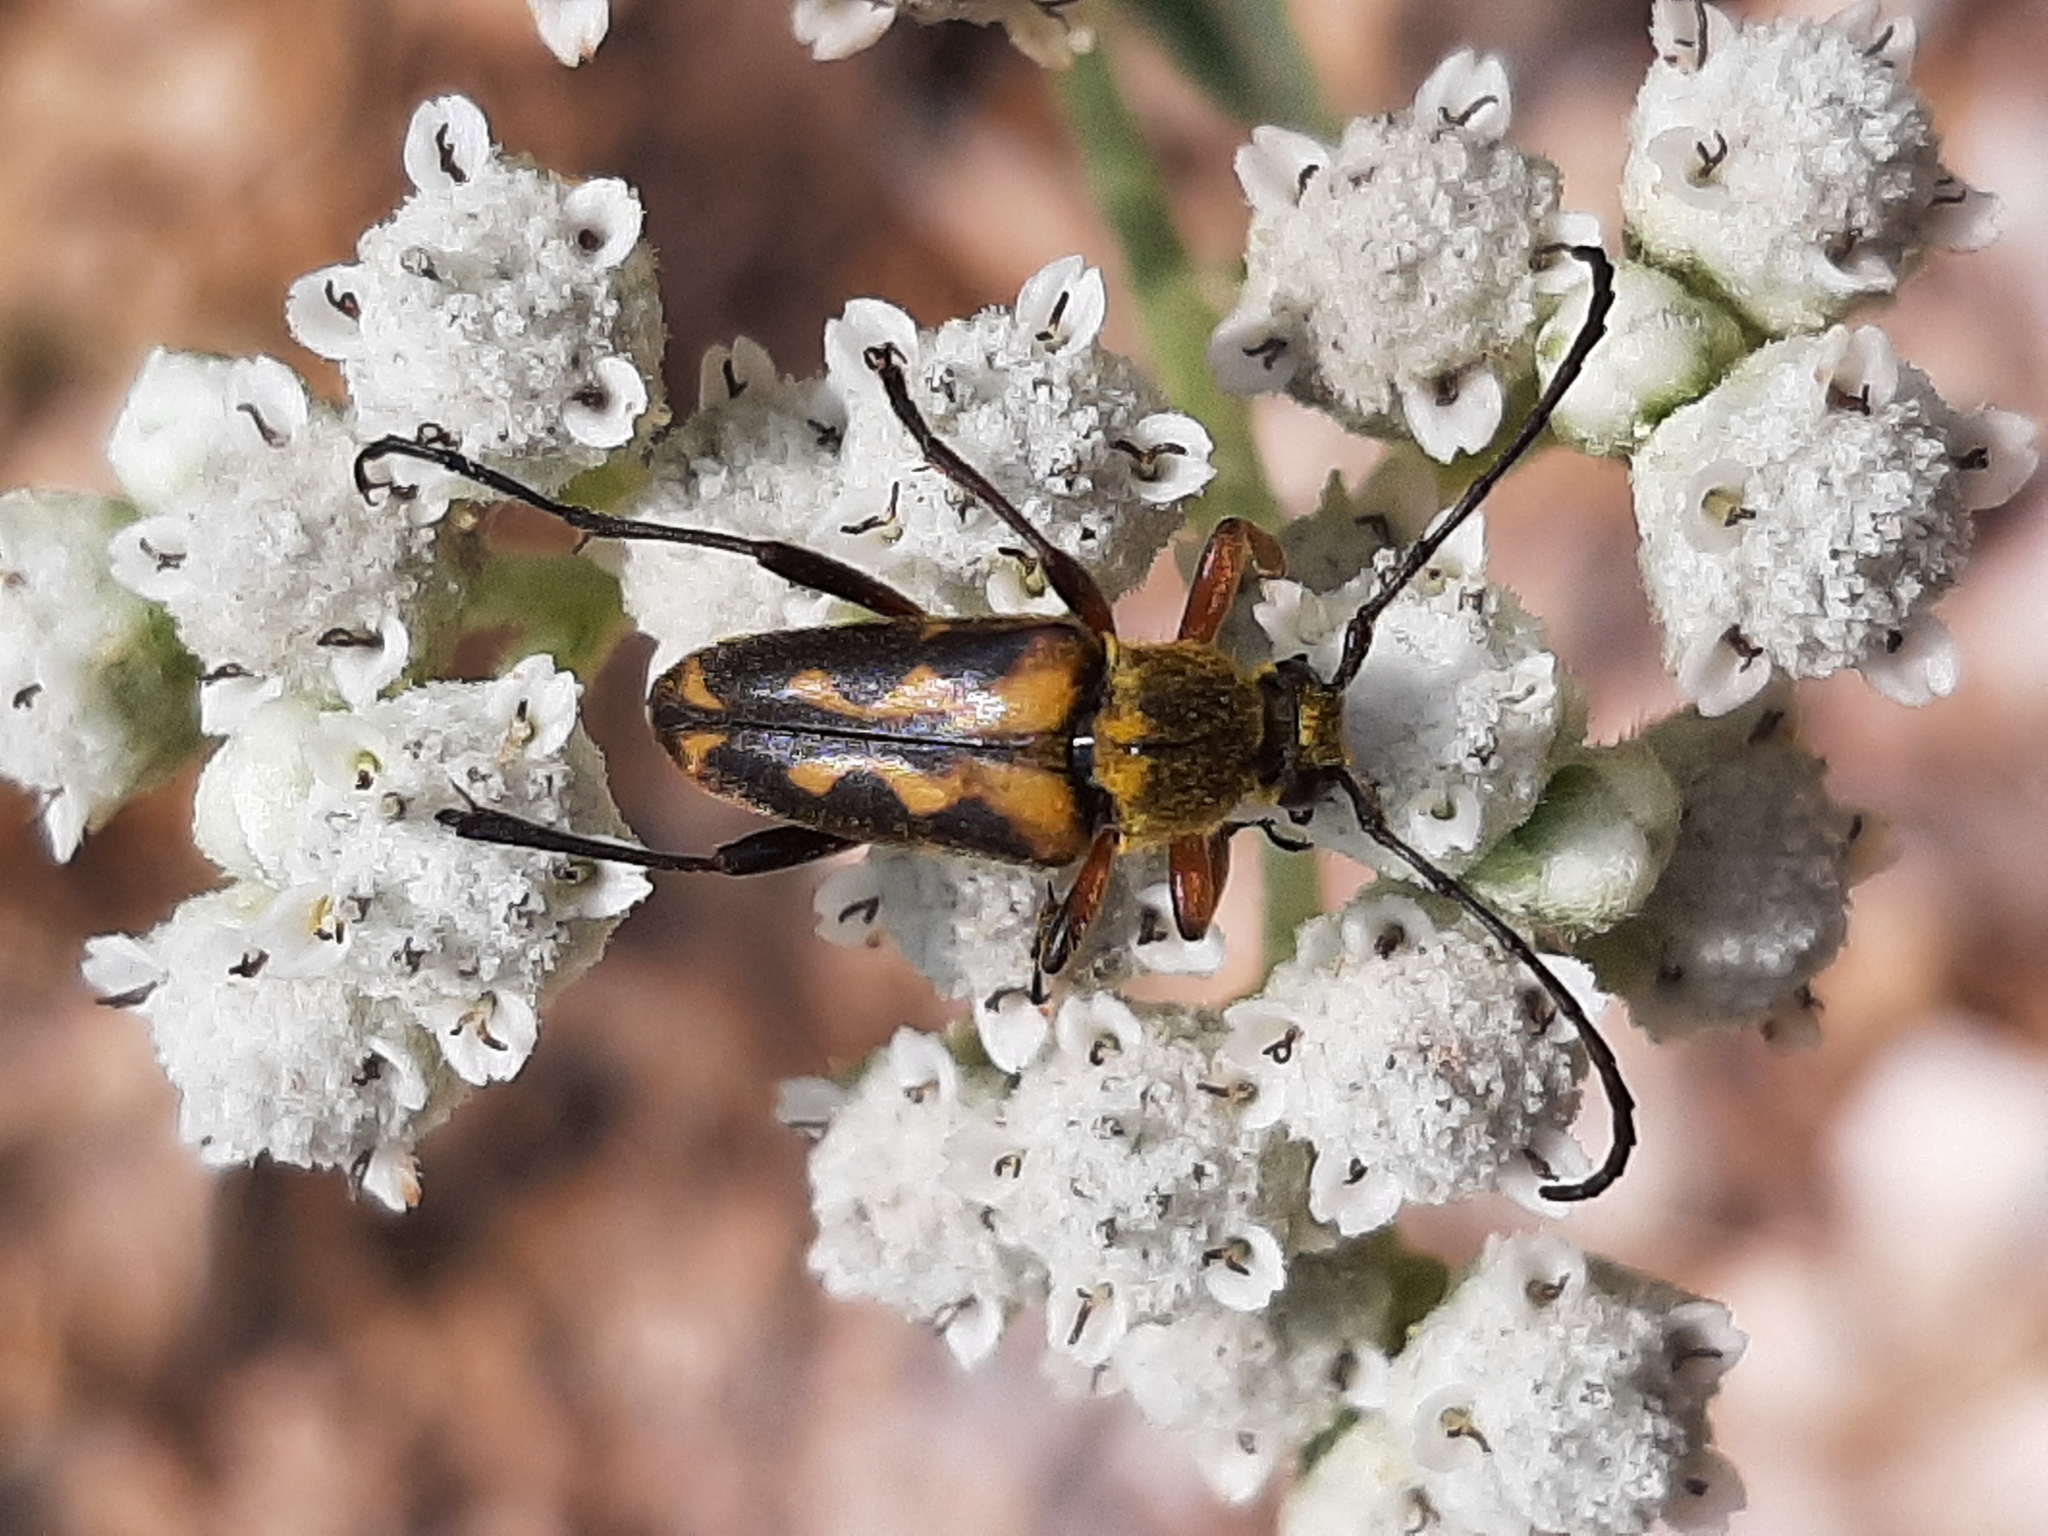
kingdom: Animalia
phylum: Arthropoda
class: Insecta
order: Coleoptera
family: Cerambycidae
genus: Typocerus
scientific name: Typocerus octonotatus
